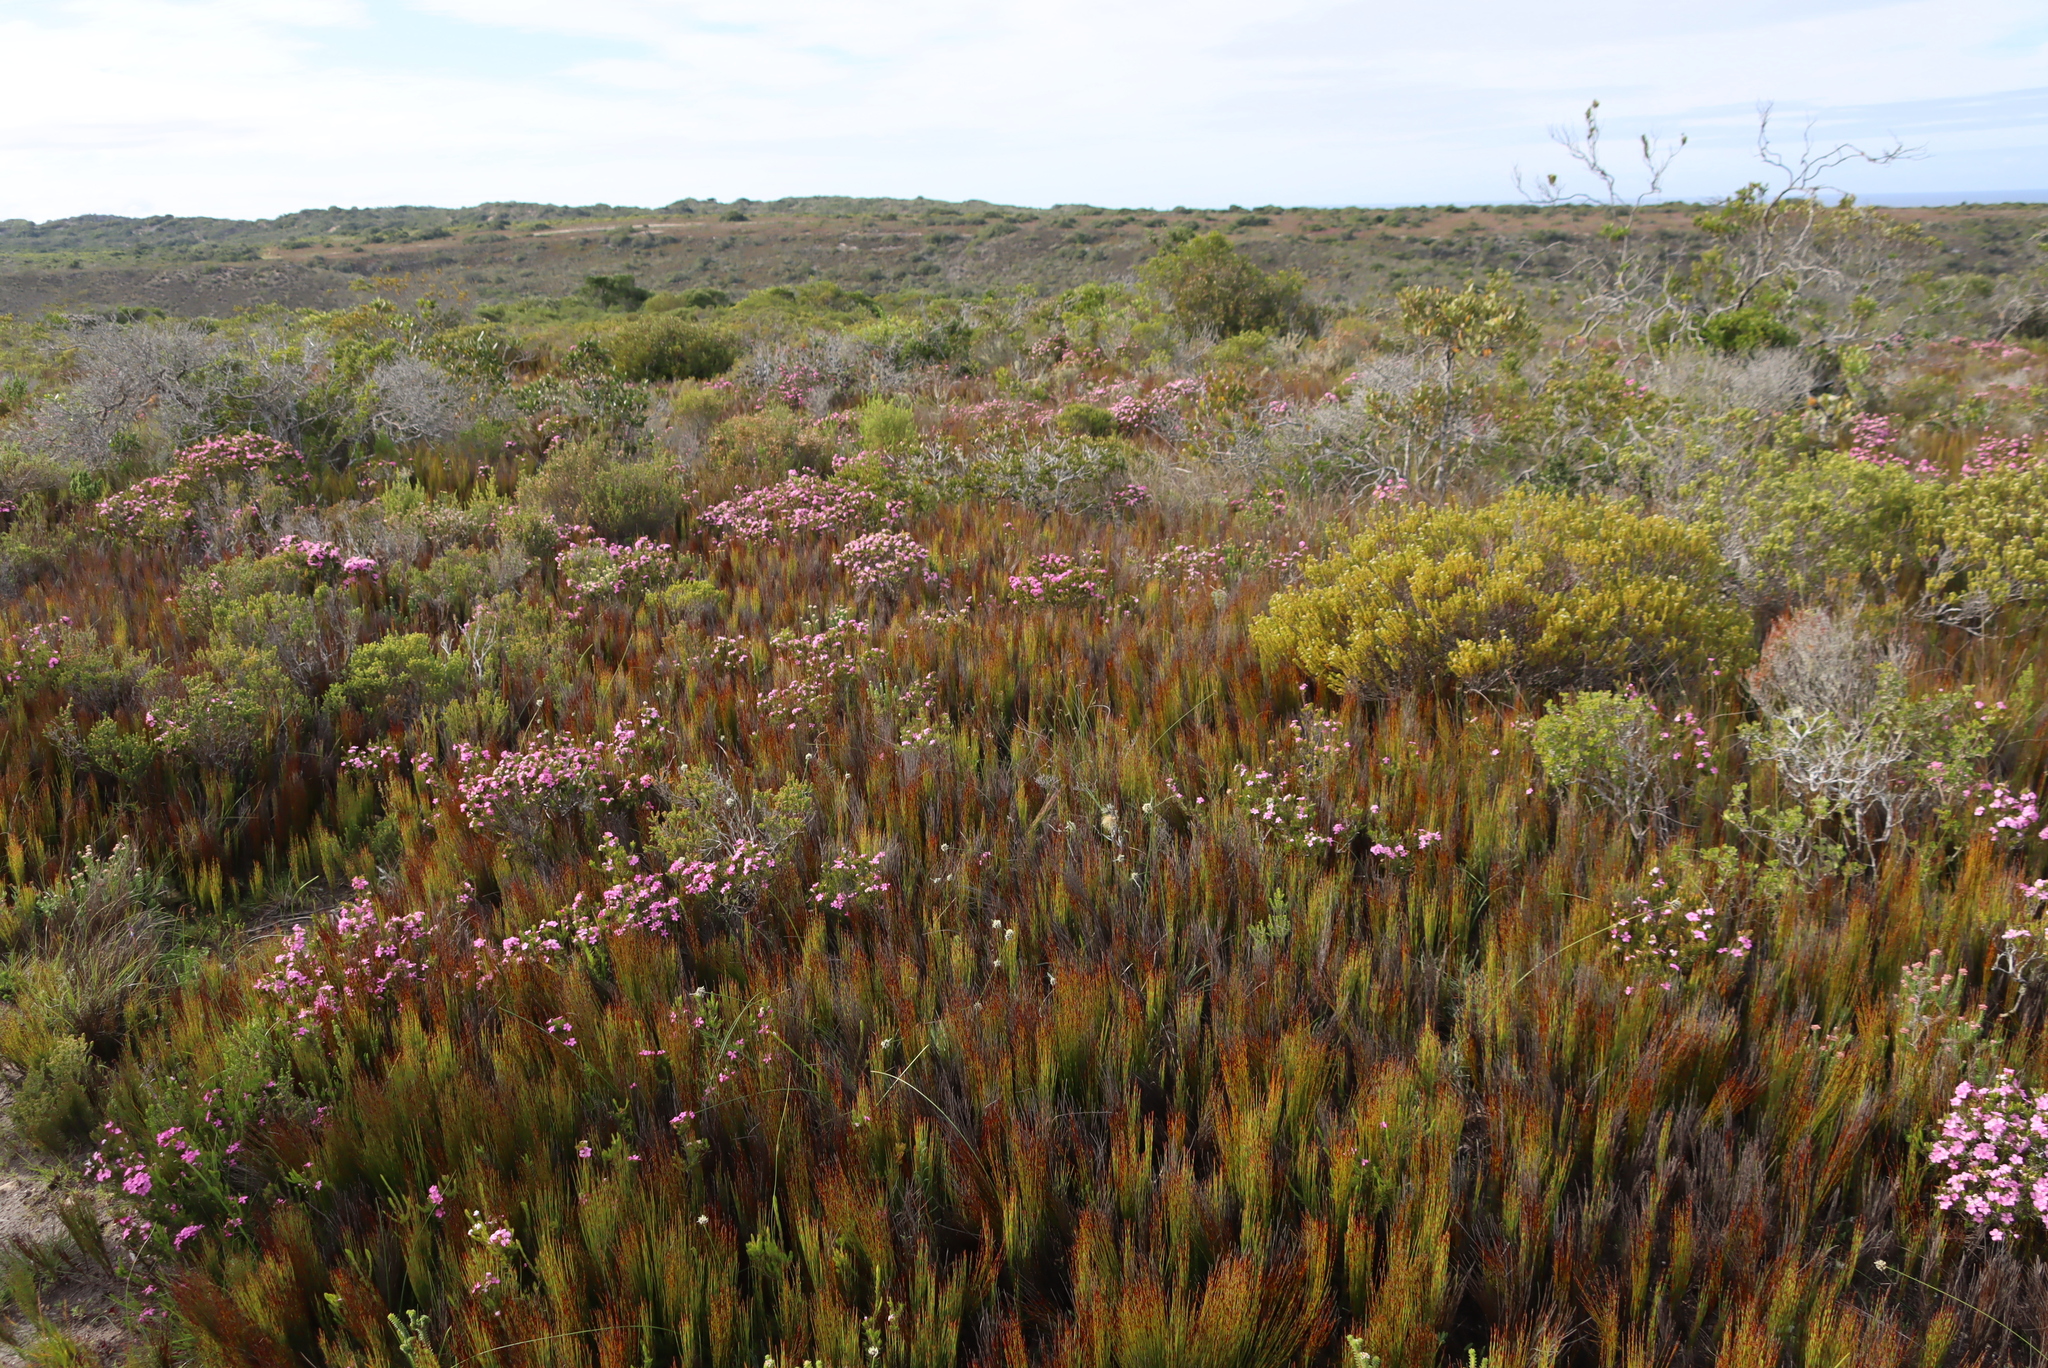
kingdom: Plantae
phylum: Tracheophyta
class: Liliopsida
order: Poales
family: Restionaceae
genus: Elegia
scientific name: Elegia microcarpa
